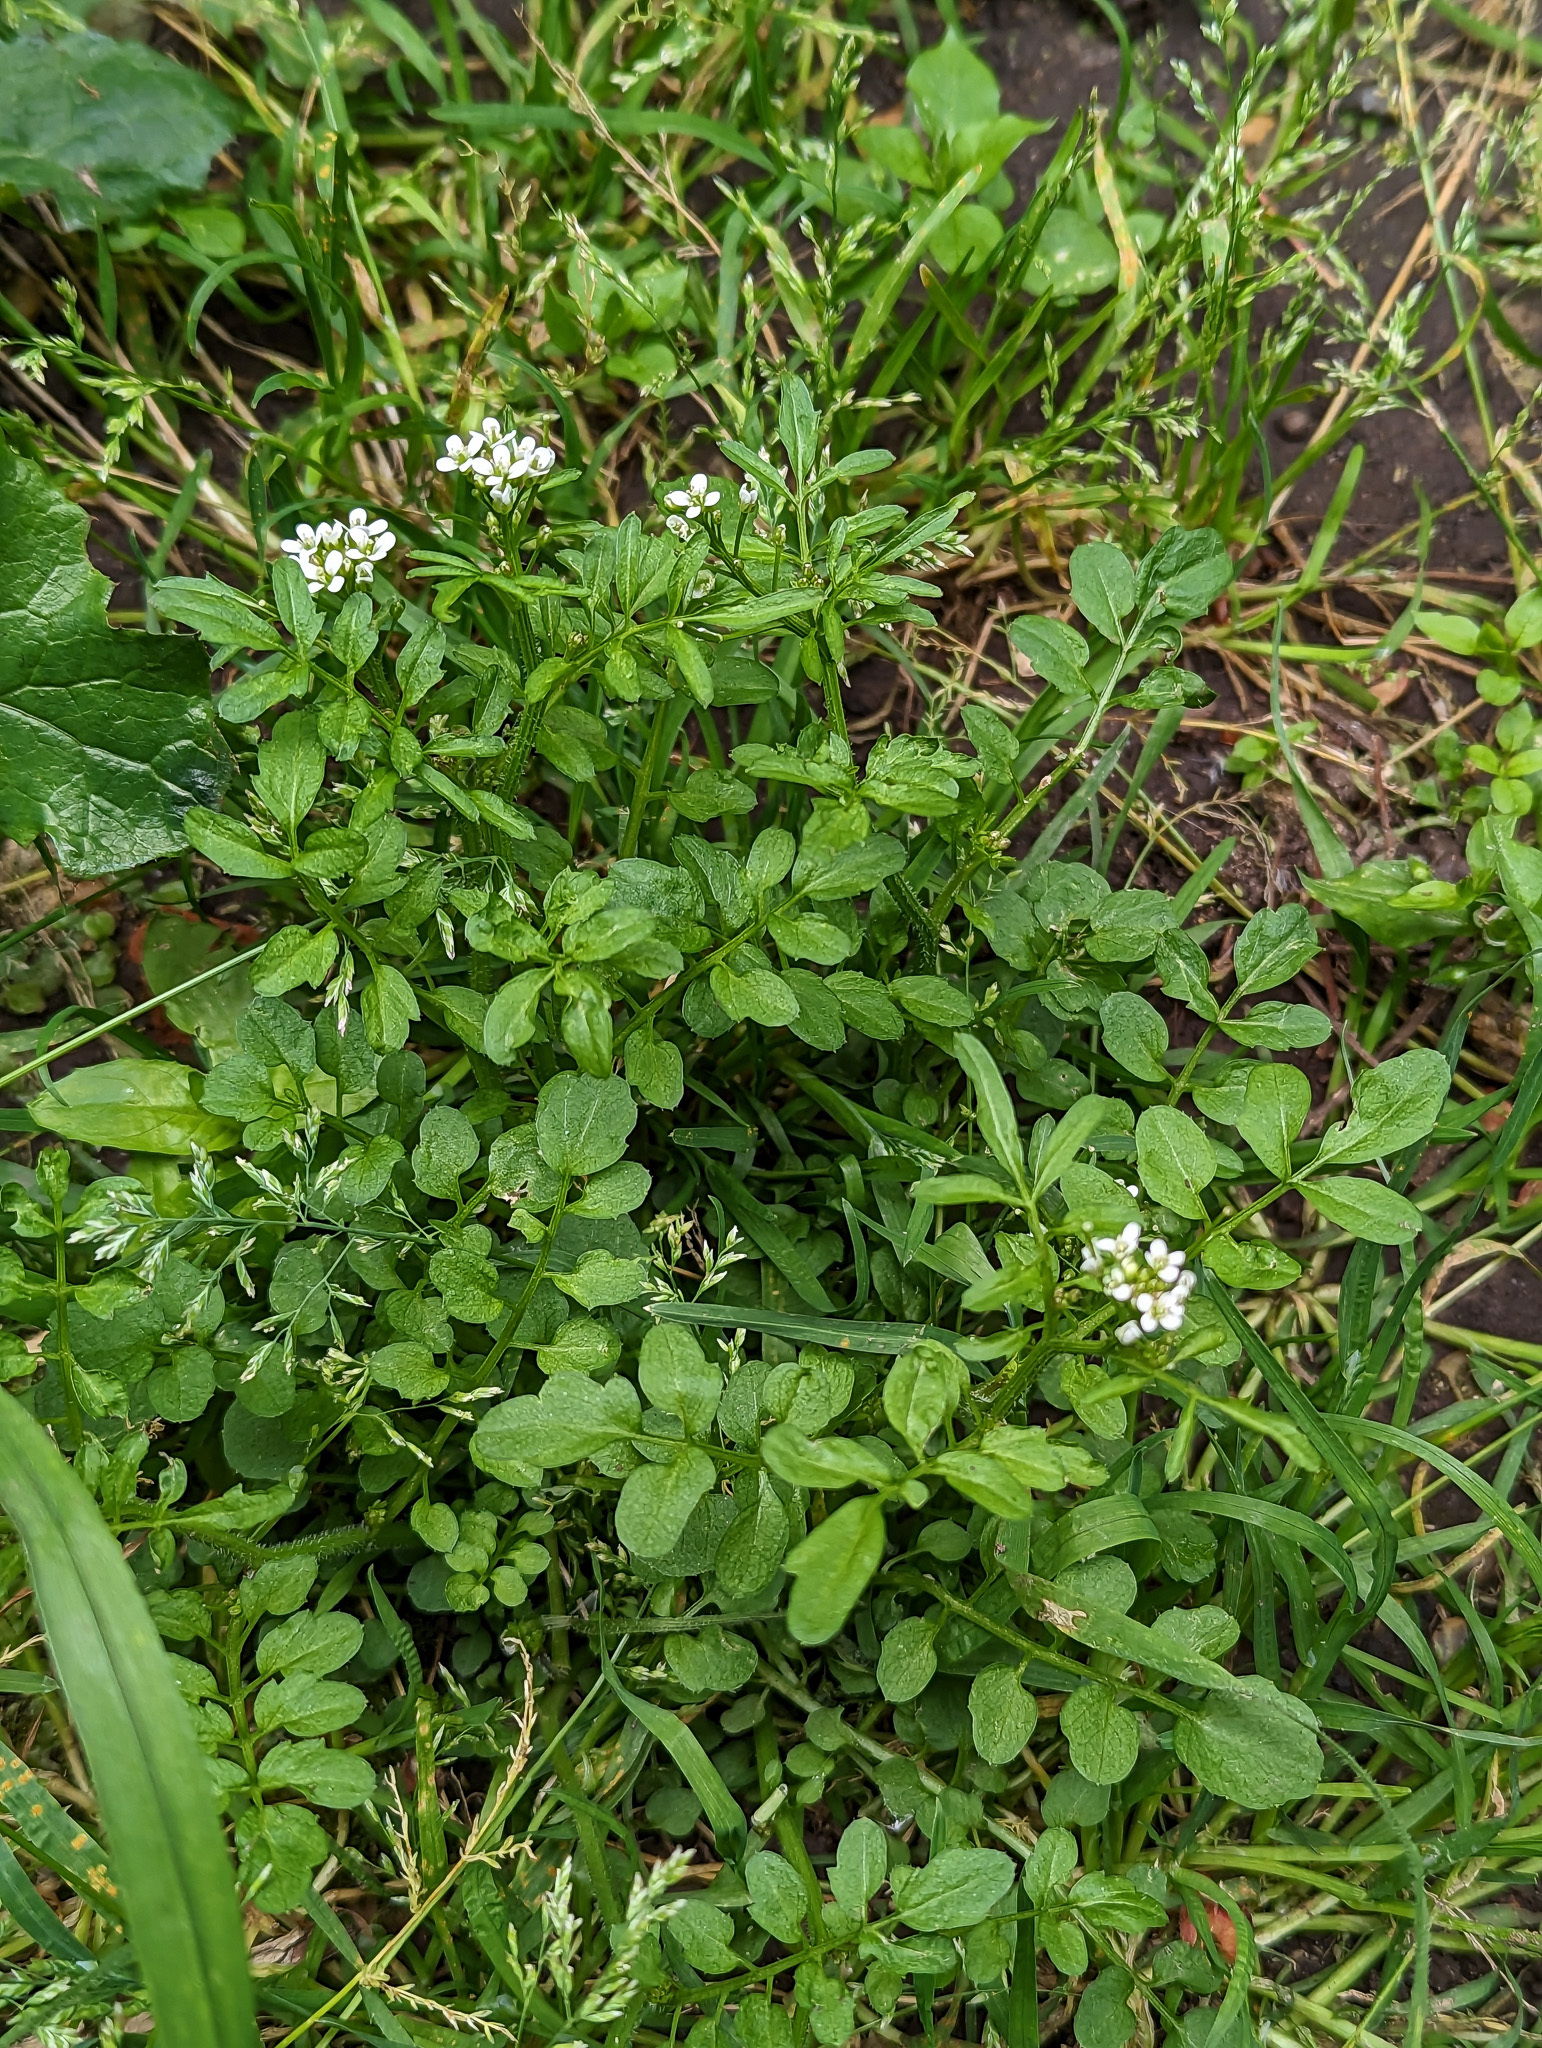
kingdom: Plantae
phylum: Tracheophyta
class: Magnoliopsida
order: Brassicales
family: Brassicaceae
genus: Cardamine
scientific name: Cardamine flexuosa
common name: Woodland bittercress
